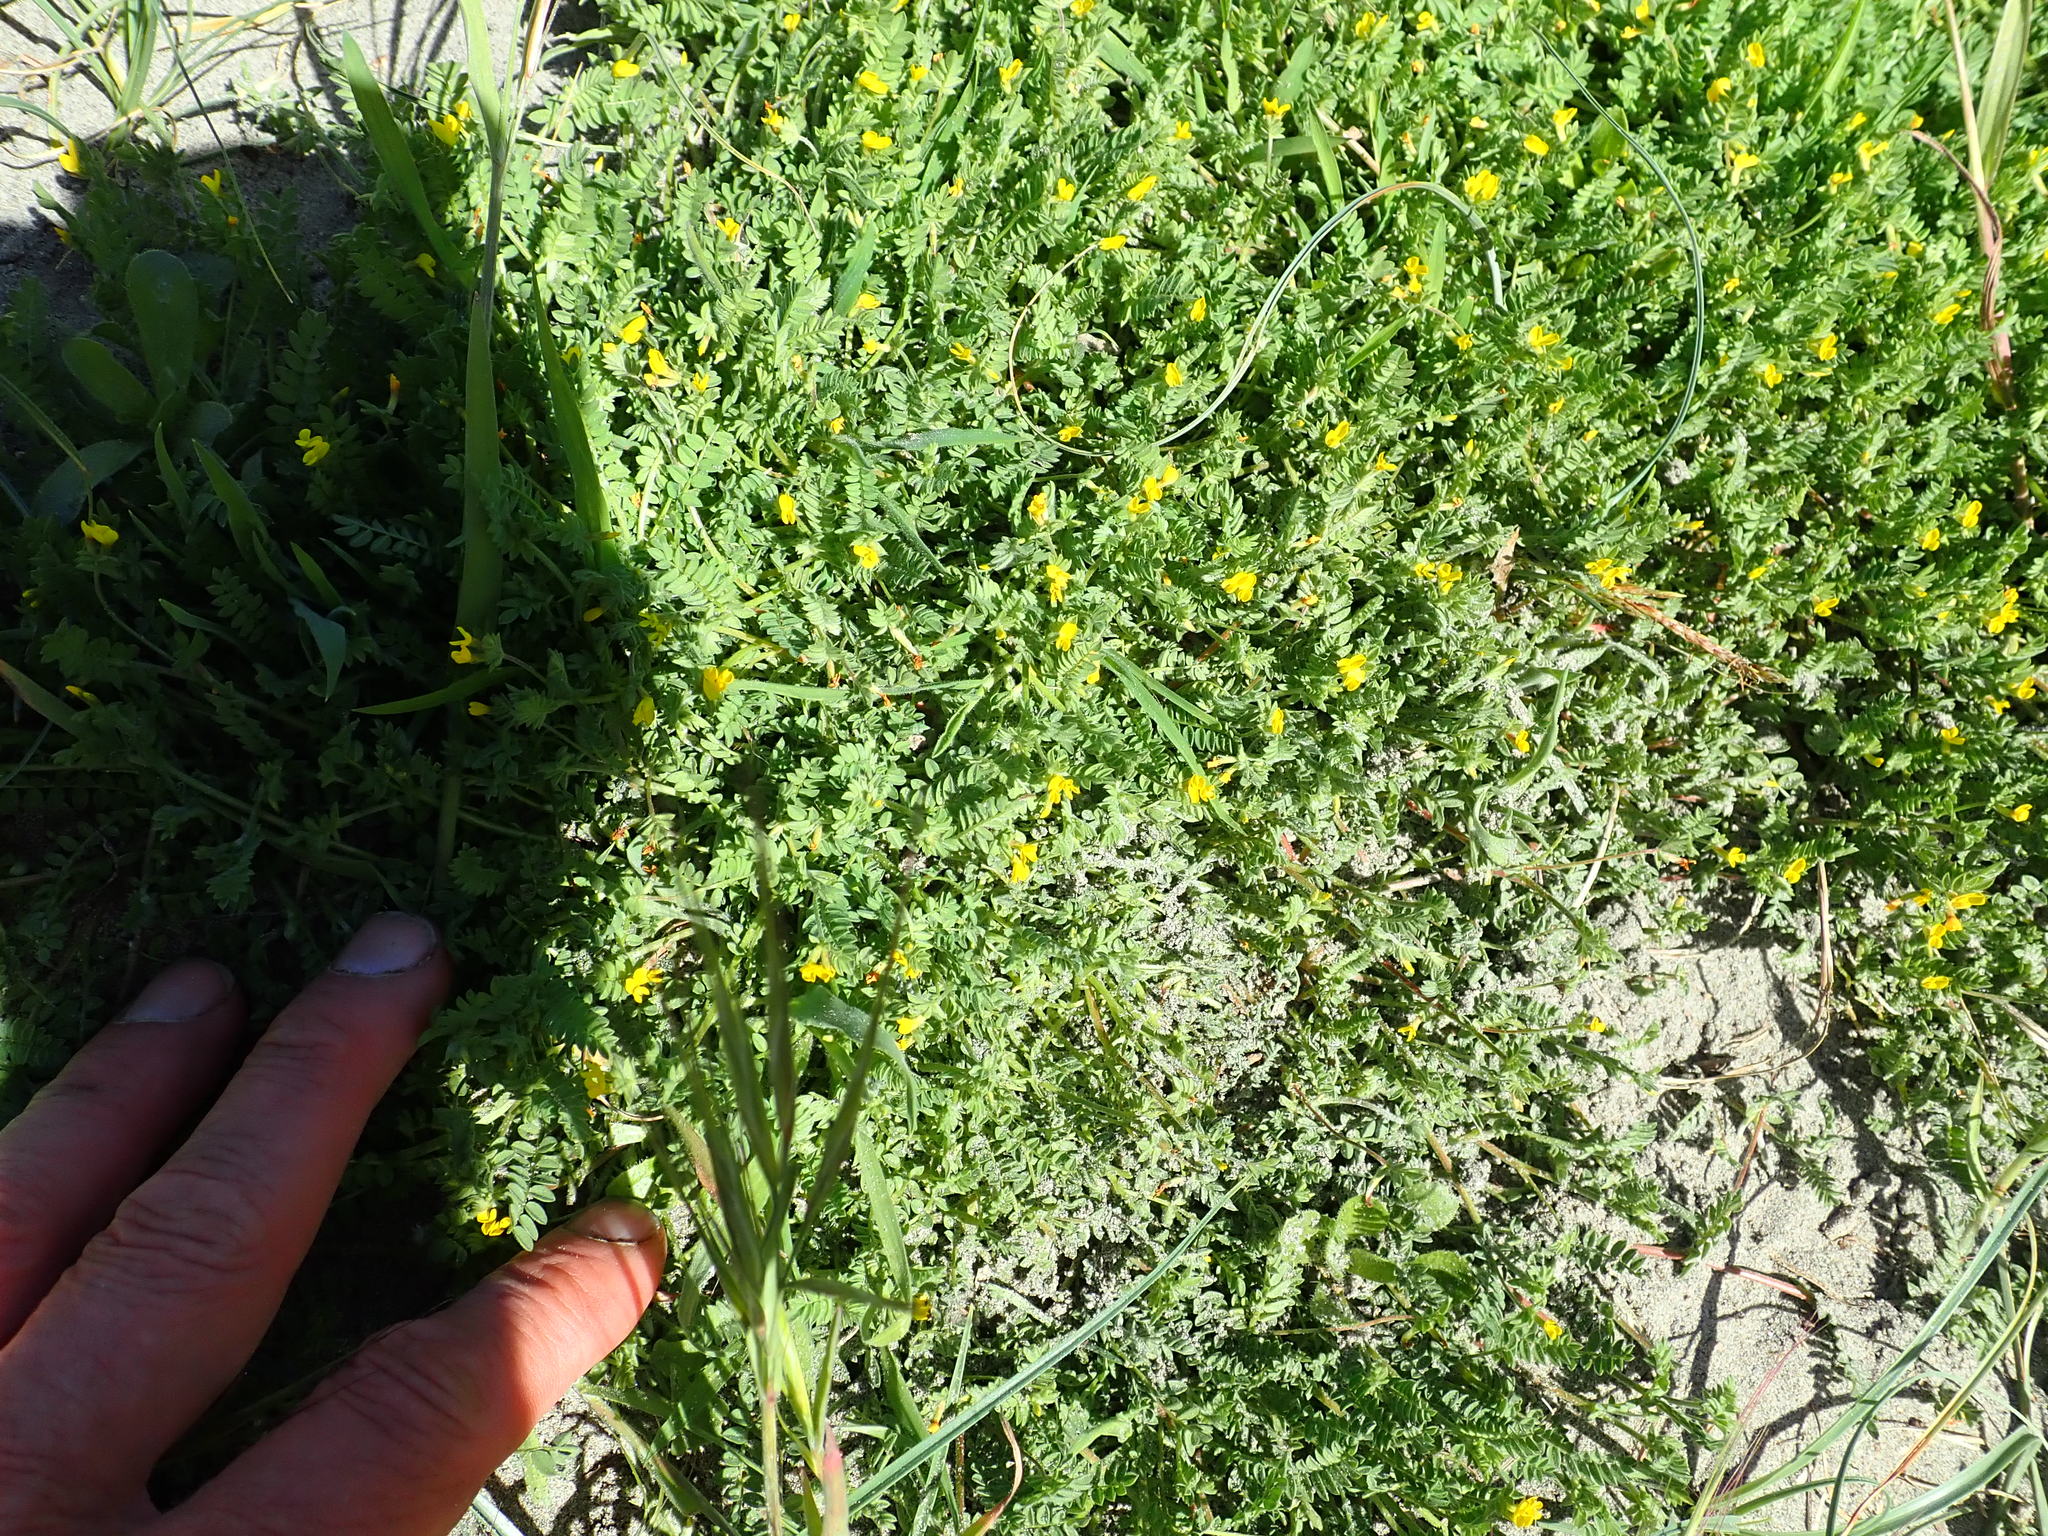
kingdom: Plantae
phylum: Tracheophyta
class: Magnoliopsida
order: Fabales
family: Fabaceae
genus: Ornithopus
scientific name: Ornithopus compressus
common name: Yellow serradella
